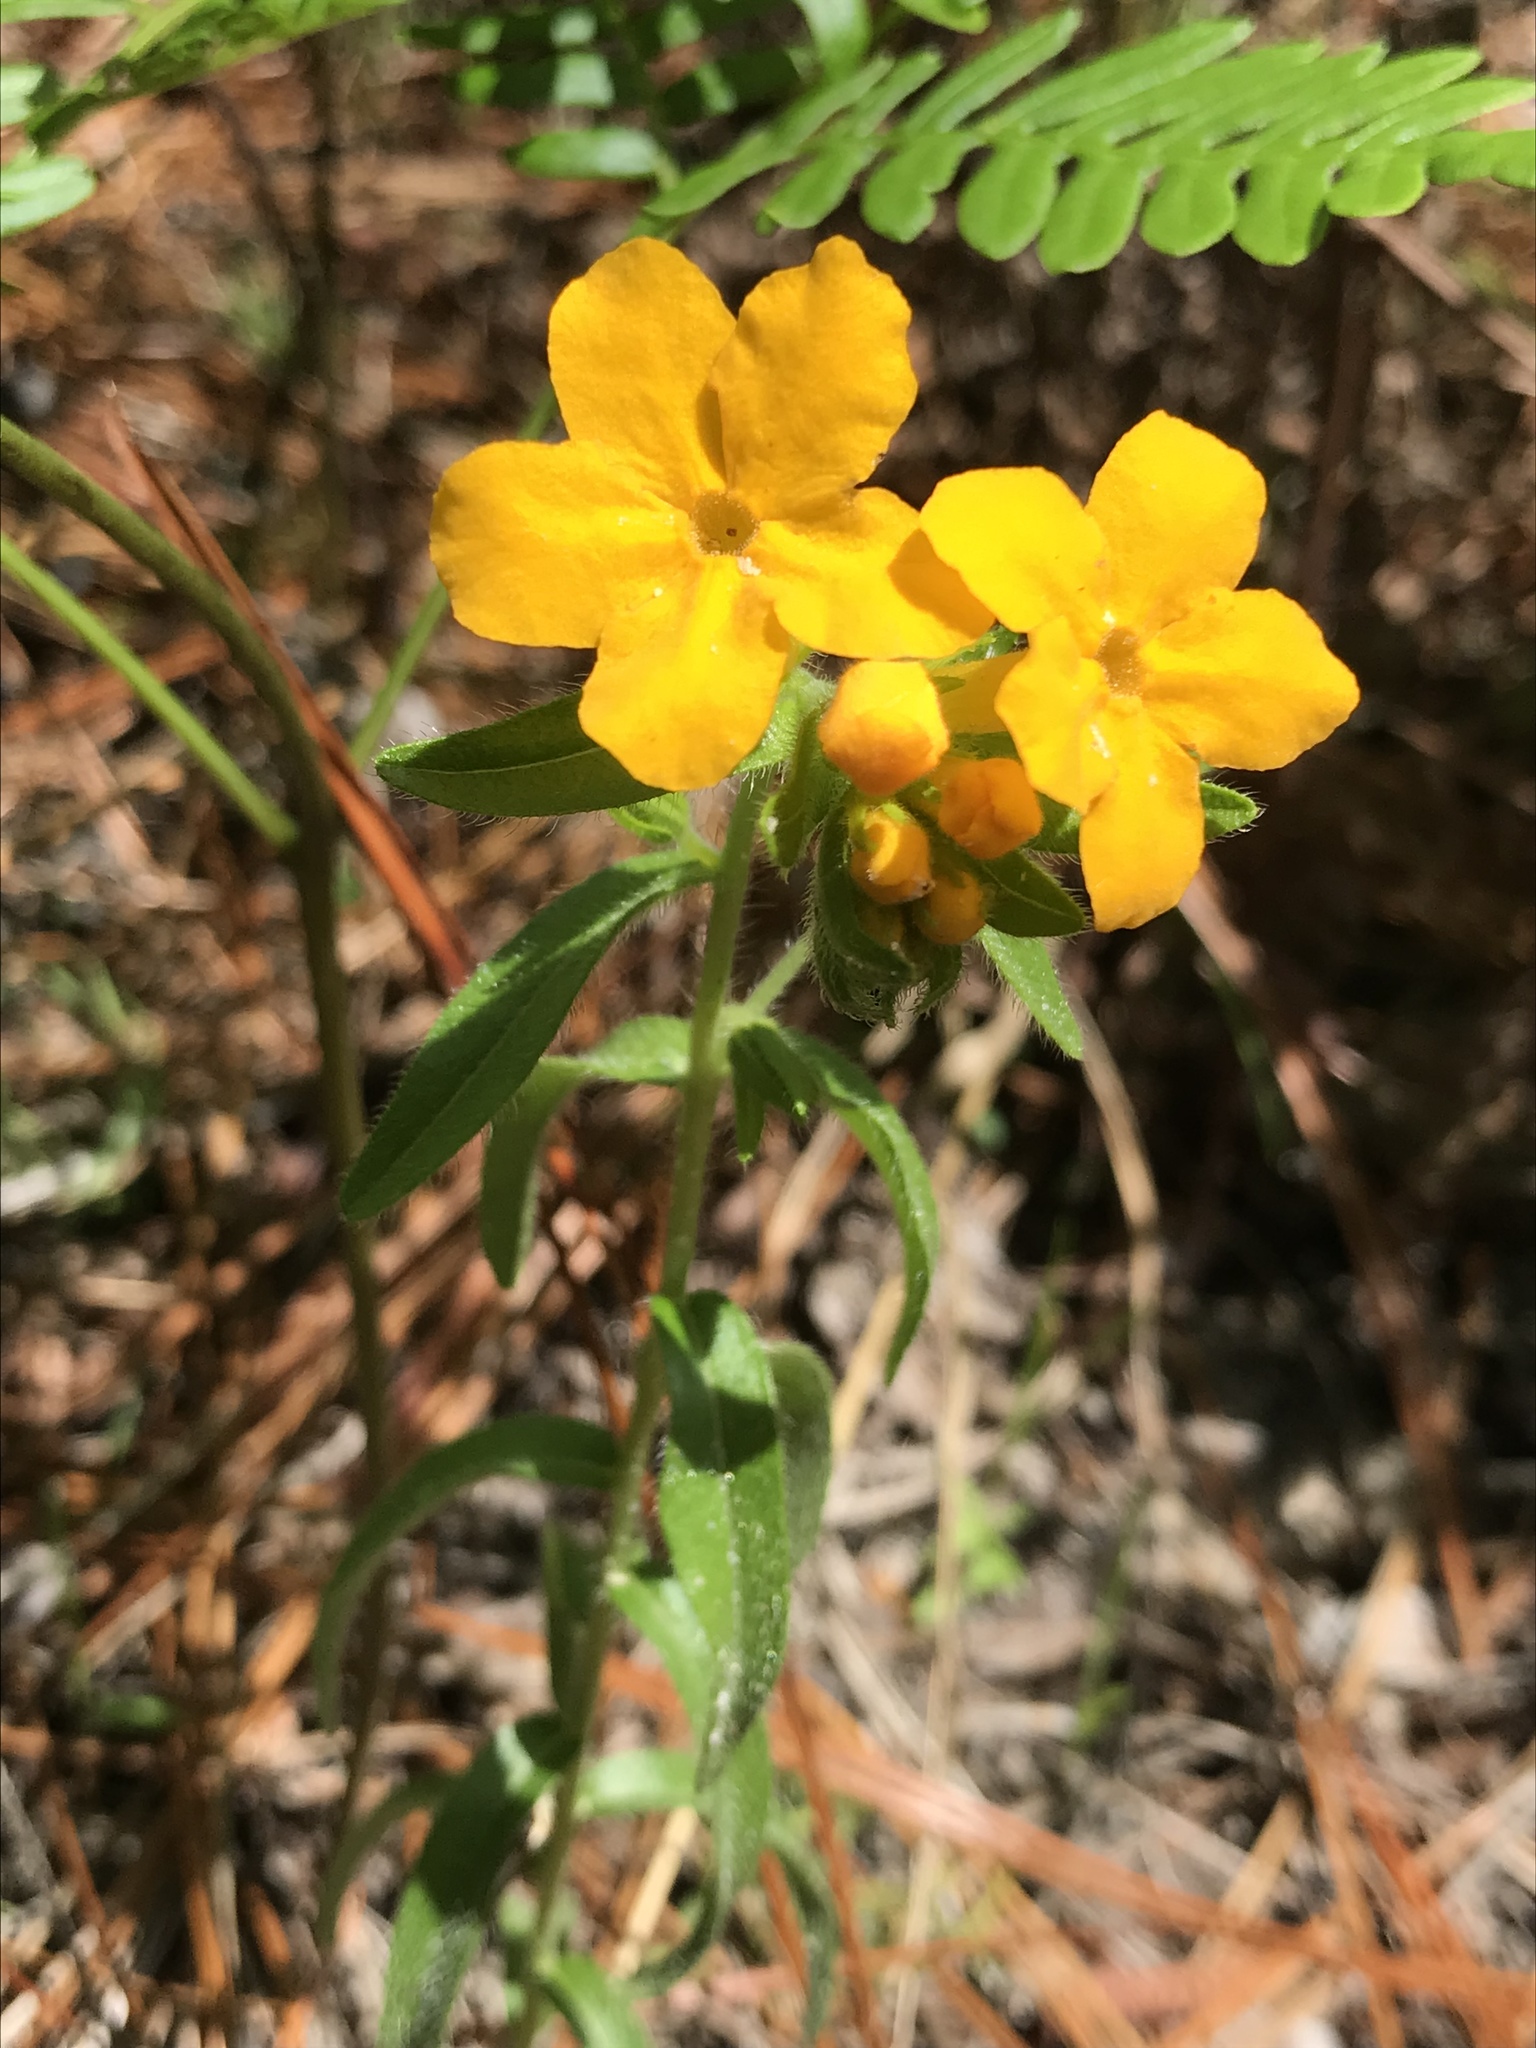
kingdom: Plantae
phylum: Tracheophyta
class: Magnoliopsida
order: Boraginales
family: Boraginaceae
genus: Lithospermum
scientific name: Lithospermum caroliniense
